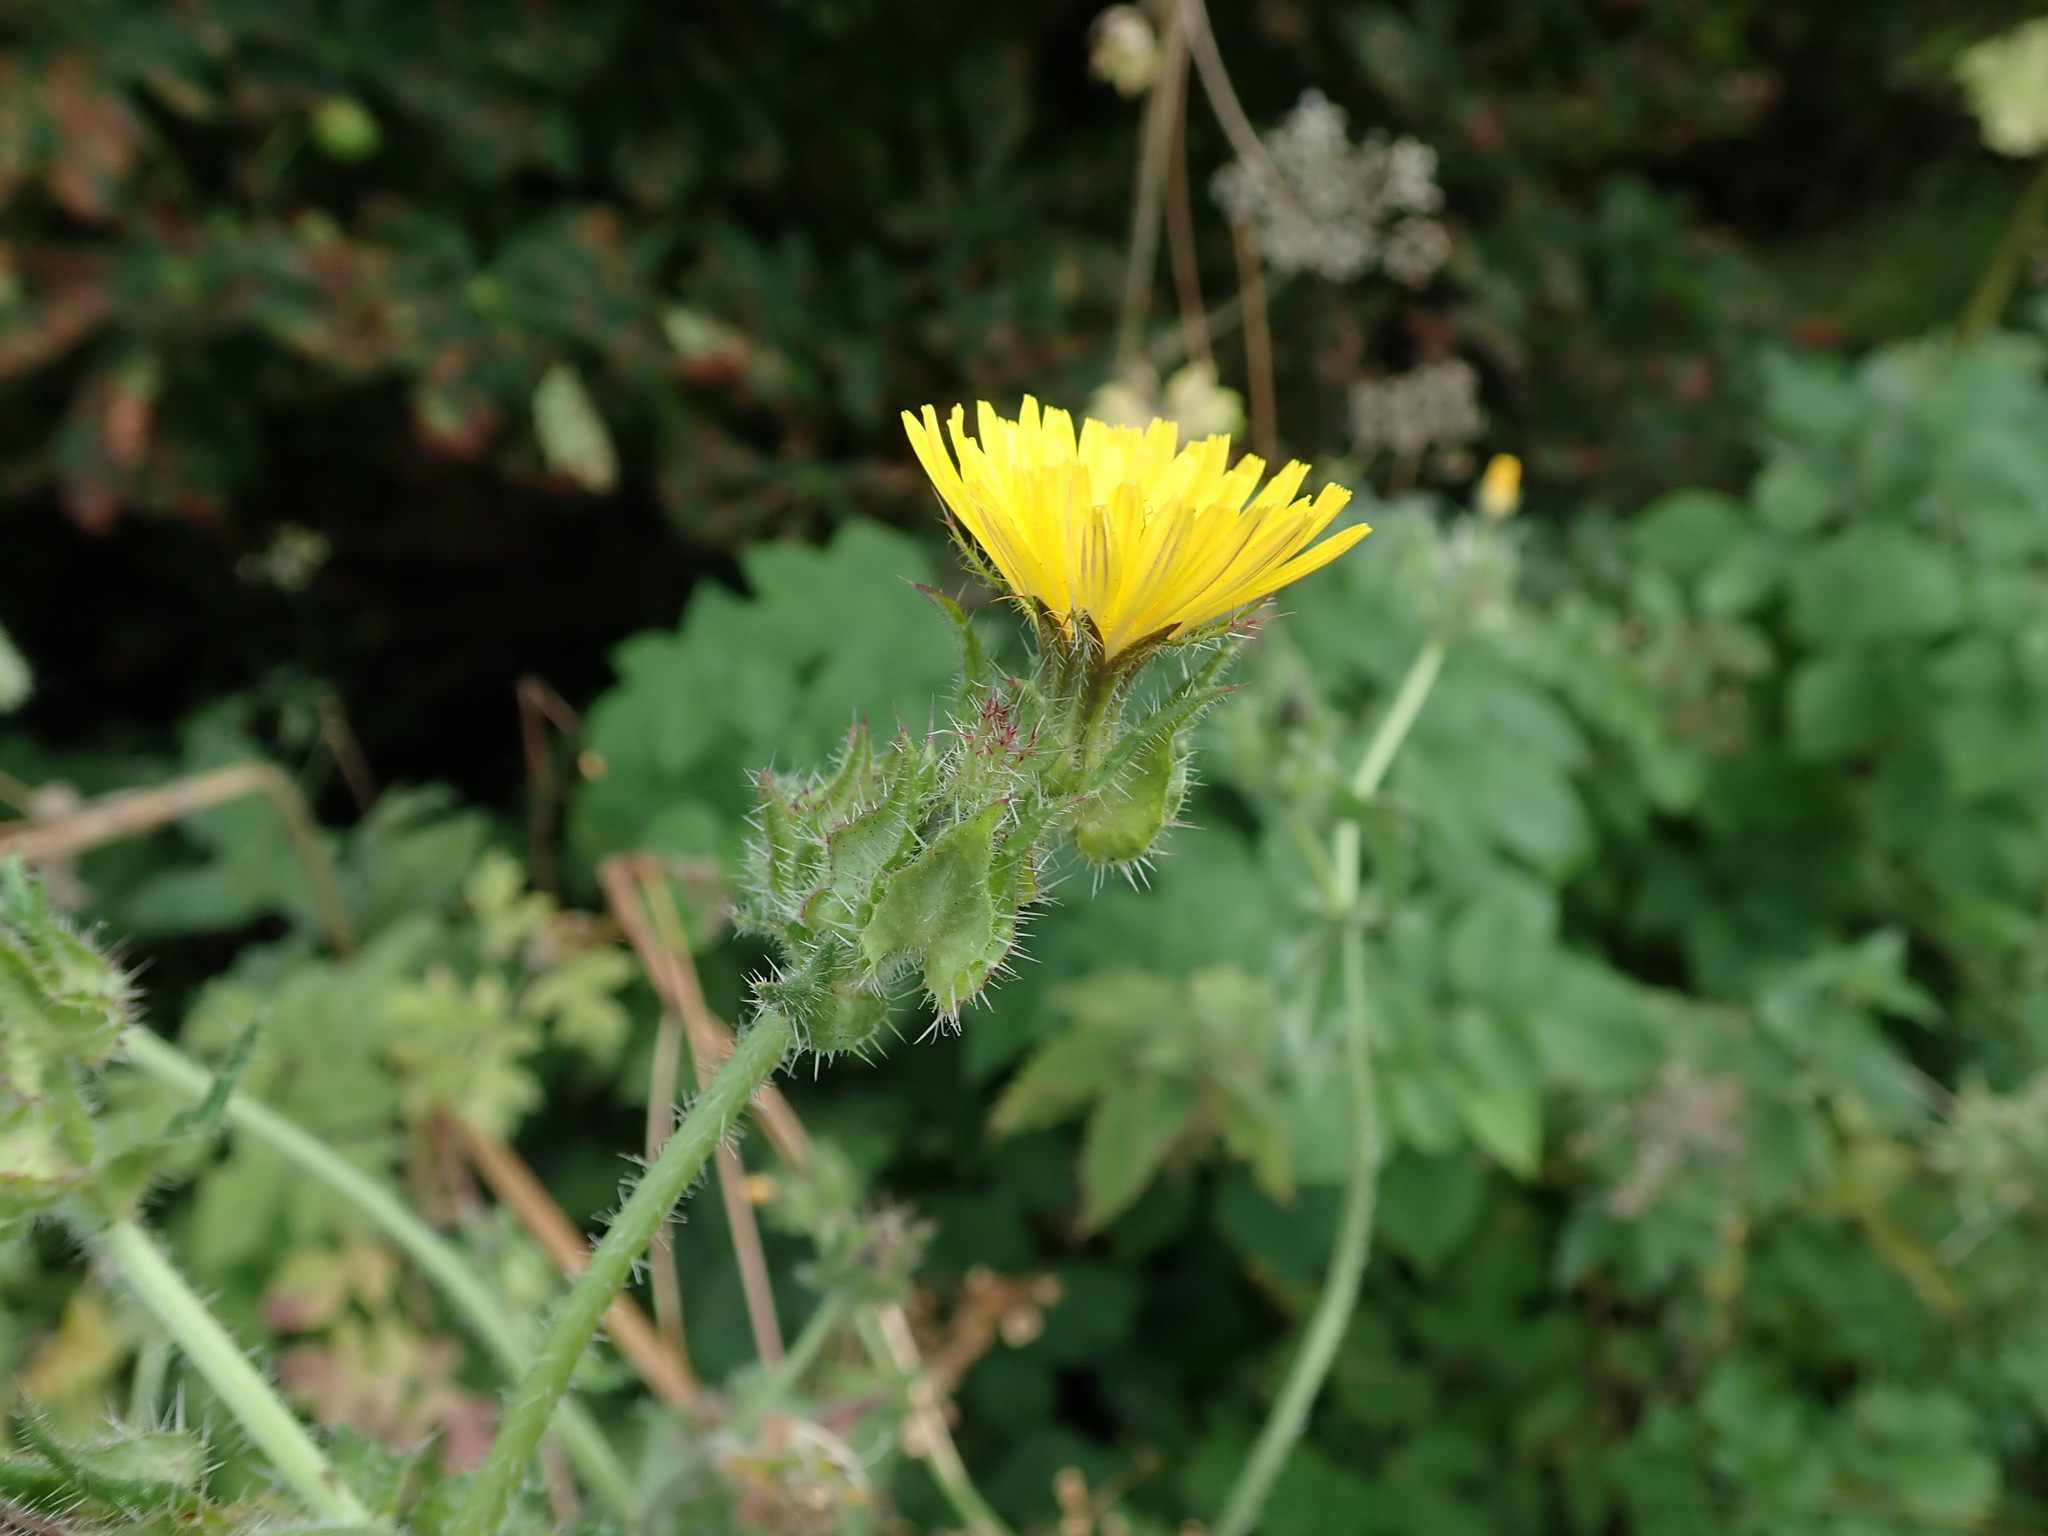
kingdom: Plantae
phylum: Tracheophyta
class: Magnoliopsida
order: Asterales
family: Asteraceae
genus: Helminthotheca
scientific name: Helminthotheca echioides
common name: Ox-tongue
